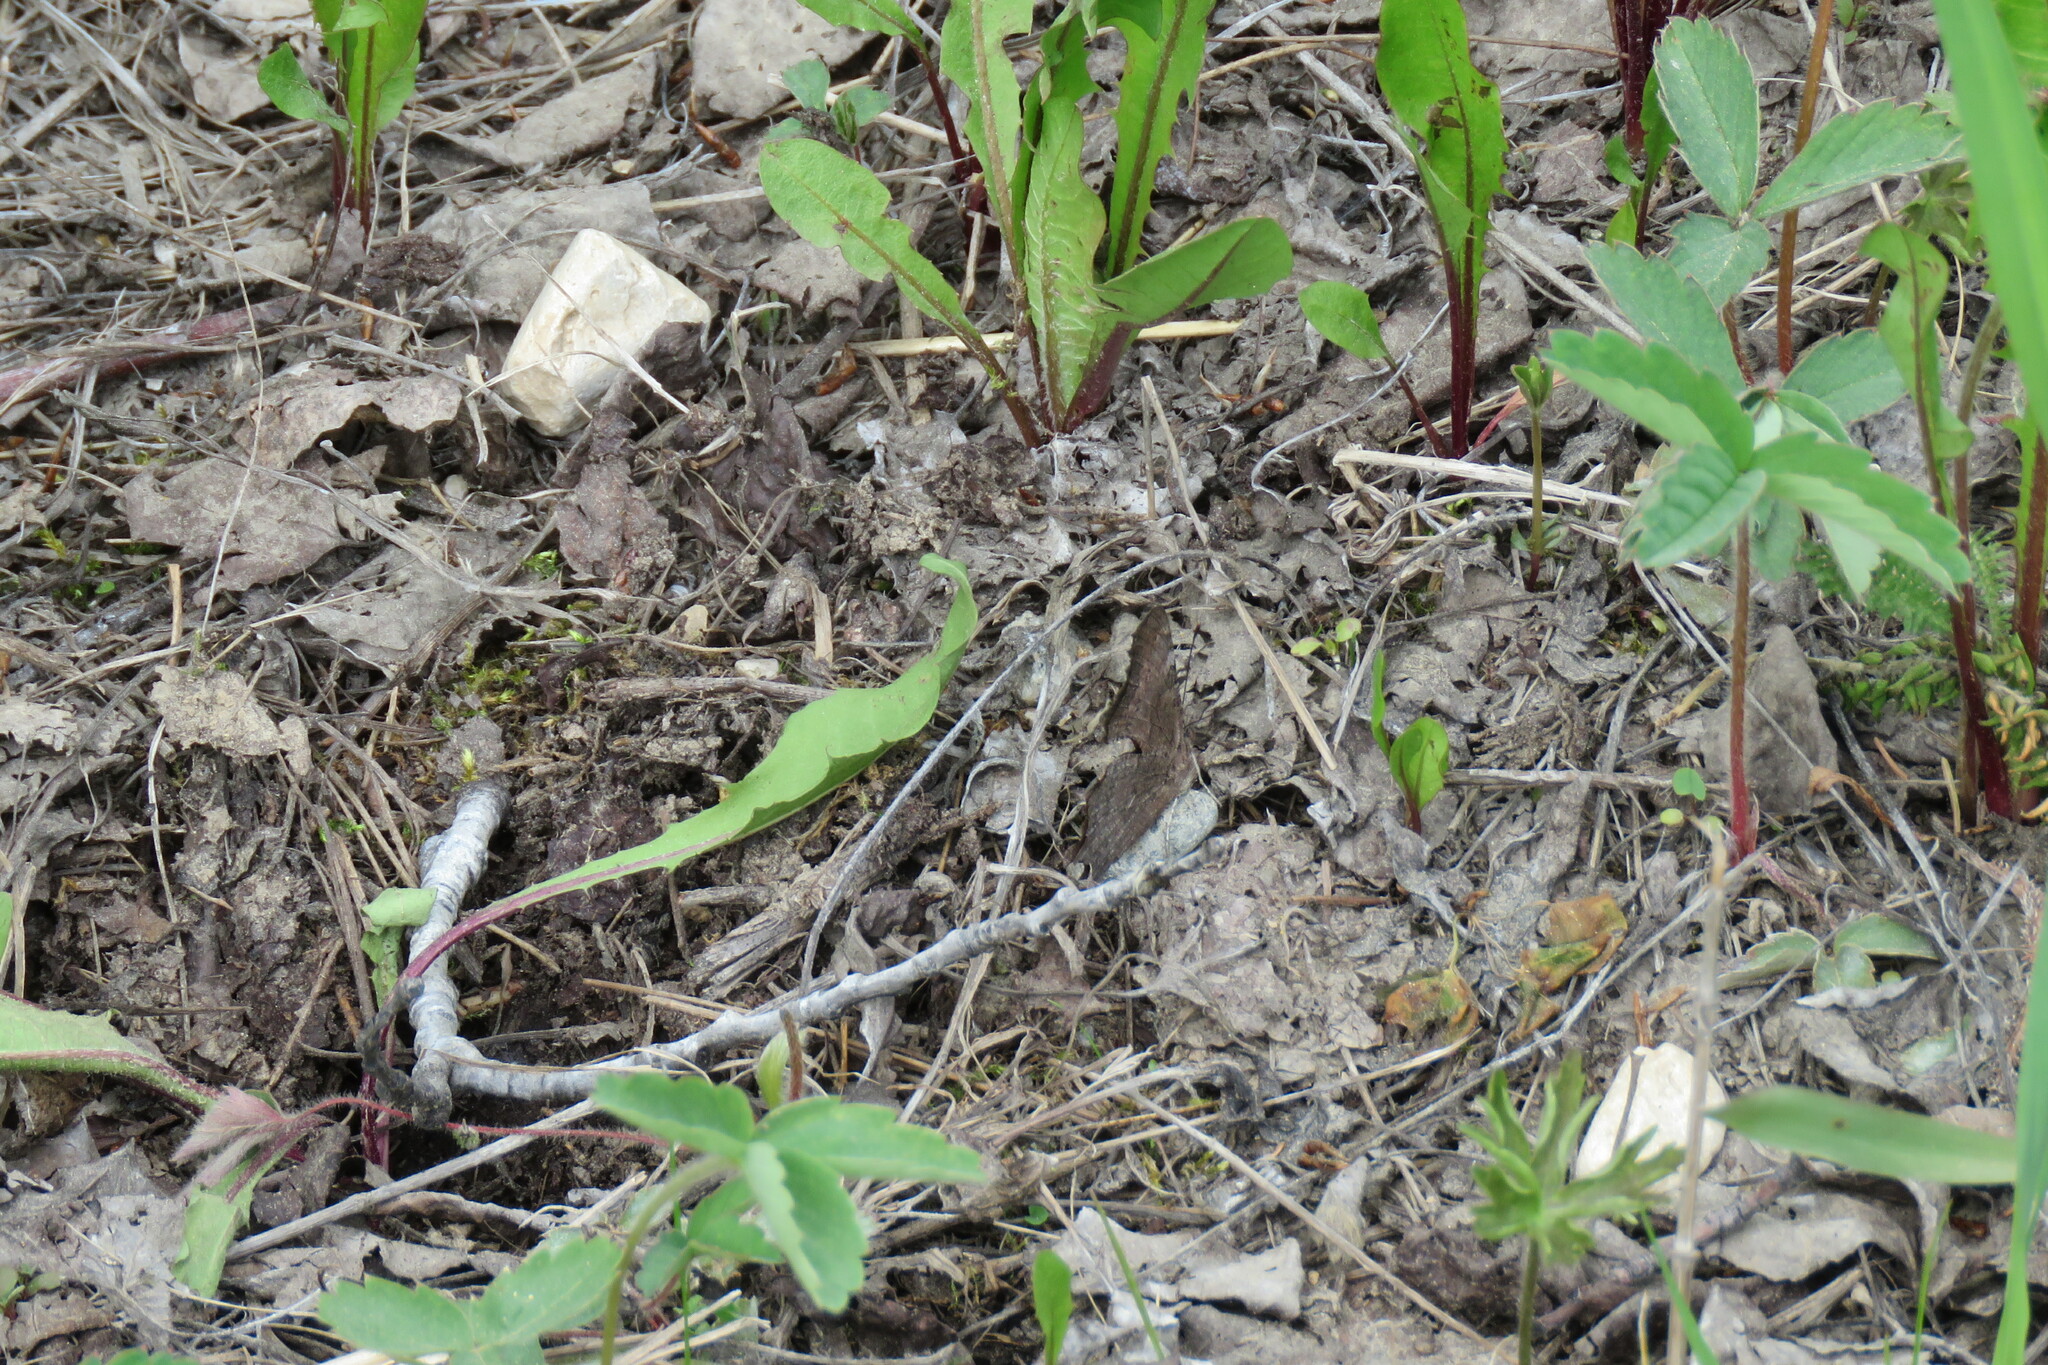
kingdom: Animalia
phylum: Arthropoda
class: Insecta
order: Lepidoptera
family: Nymphalidae
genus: Polygonia
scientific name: Polygonia progne
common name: Gray comma
